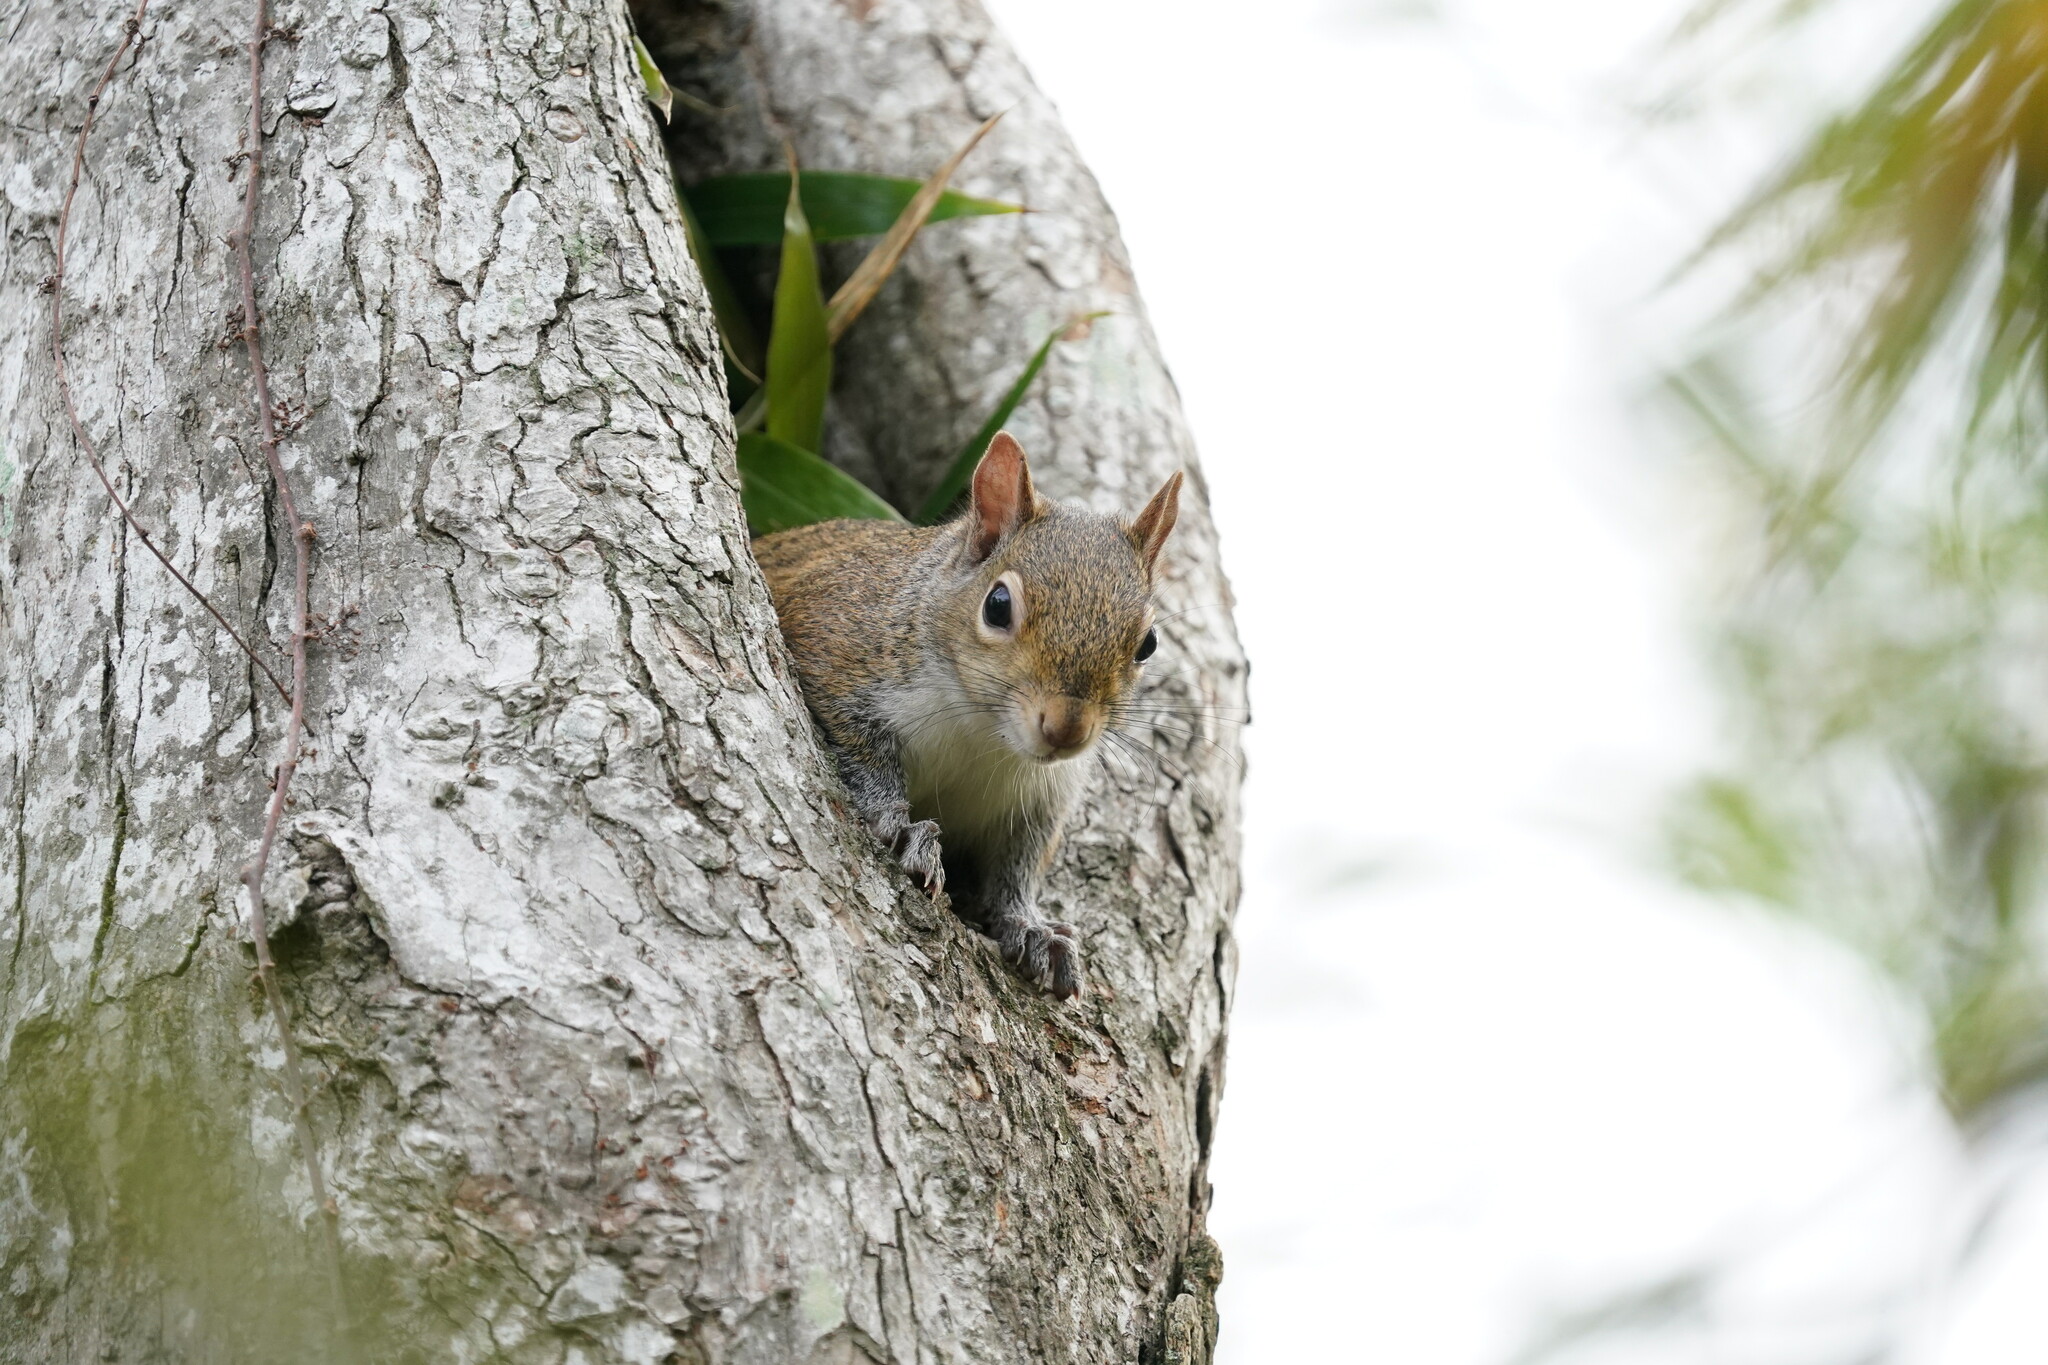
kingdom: Animalia
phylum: Chordata
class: Mammalia
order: Rodentia
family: Sciuridae
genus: Sciurus
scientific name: Sciurus carolinensis
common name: Eastern gray squirrel
